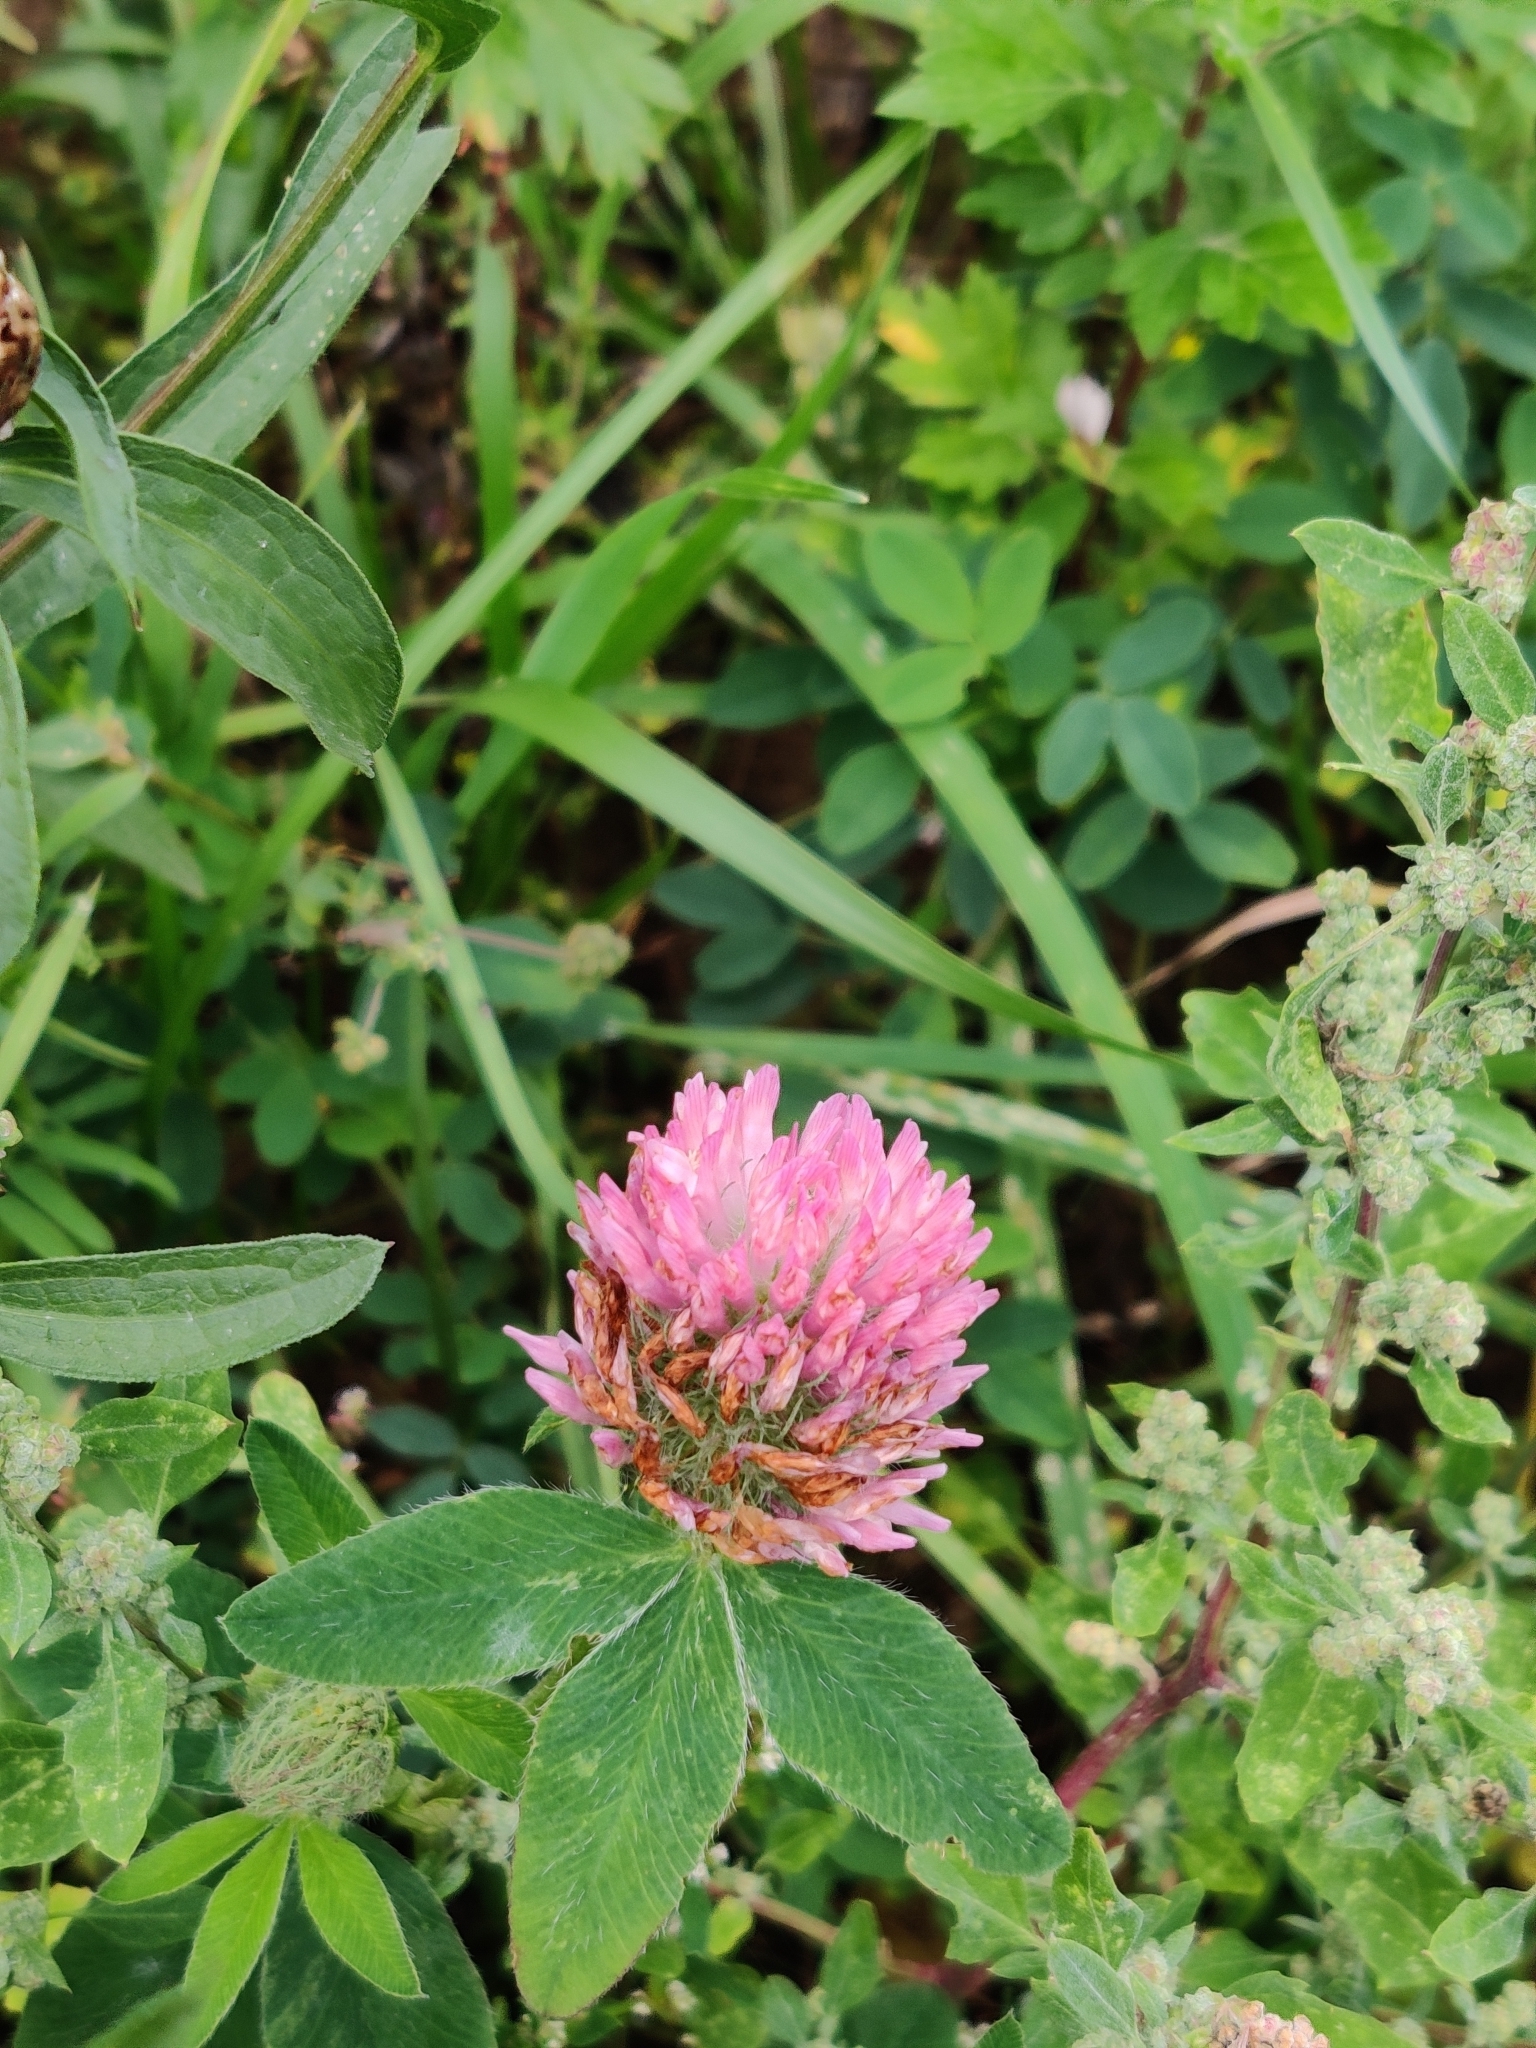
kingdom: Plantae
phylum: Tracheophyta
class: Magnoliopsida
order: Fabales
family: Fabaceae
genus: Trifolium
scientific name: Trifolium pratense
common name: Red clover
